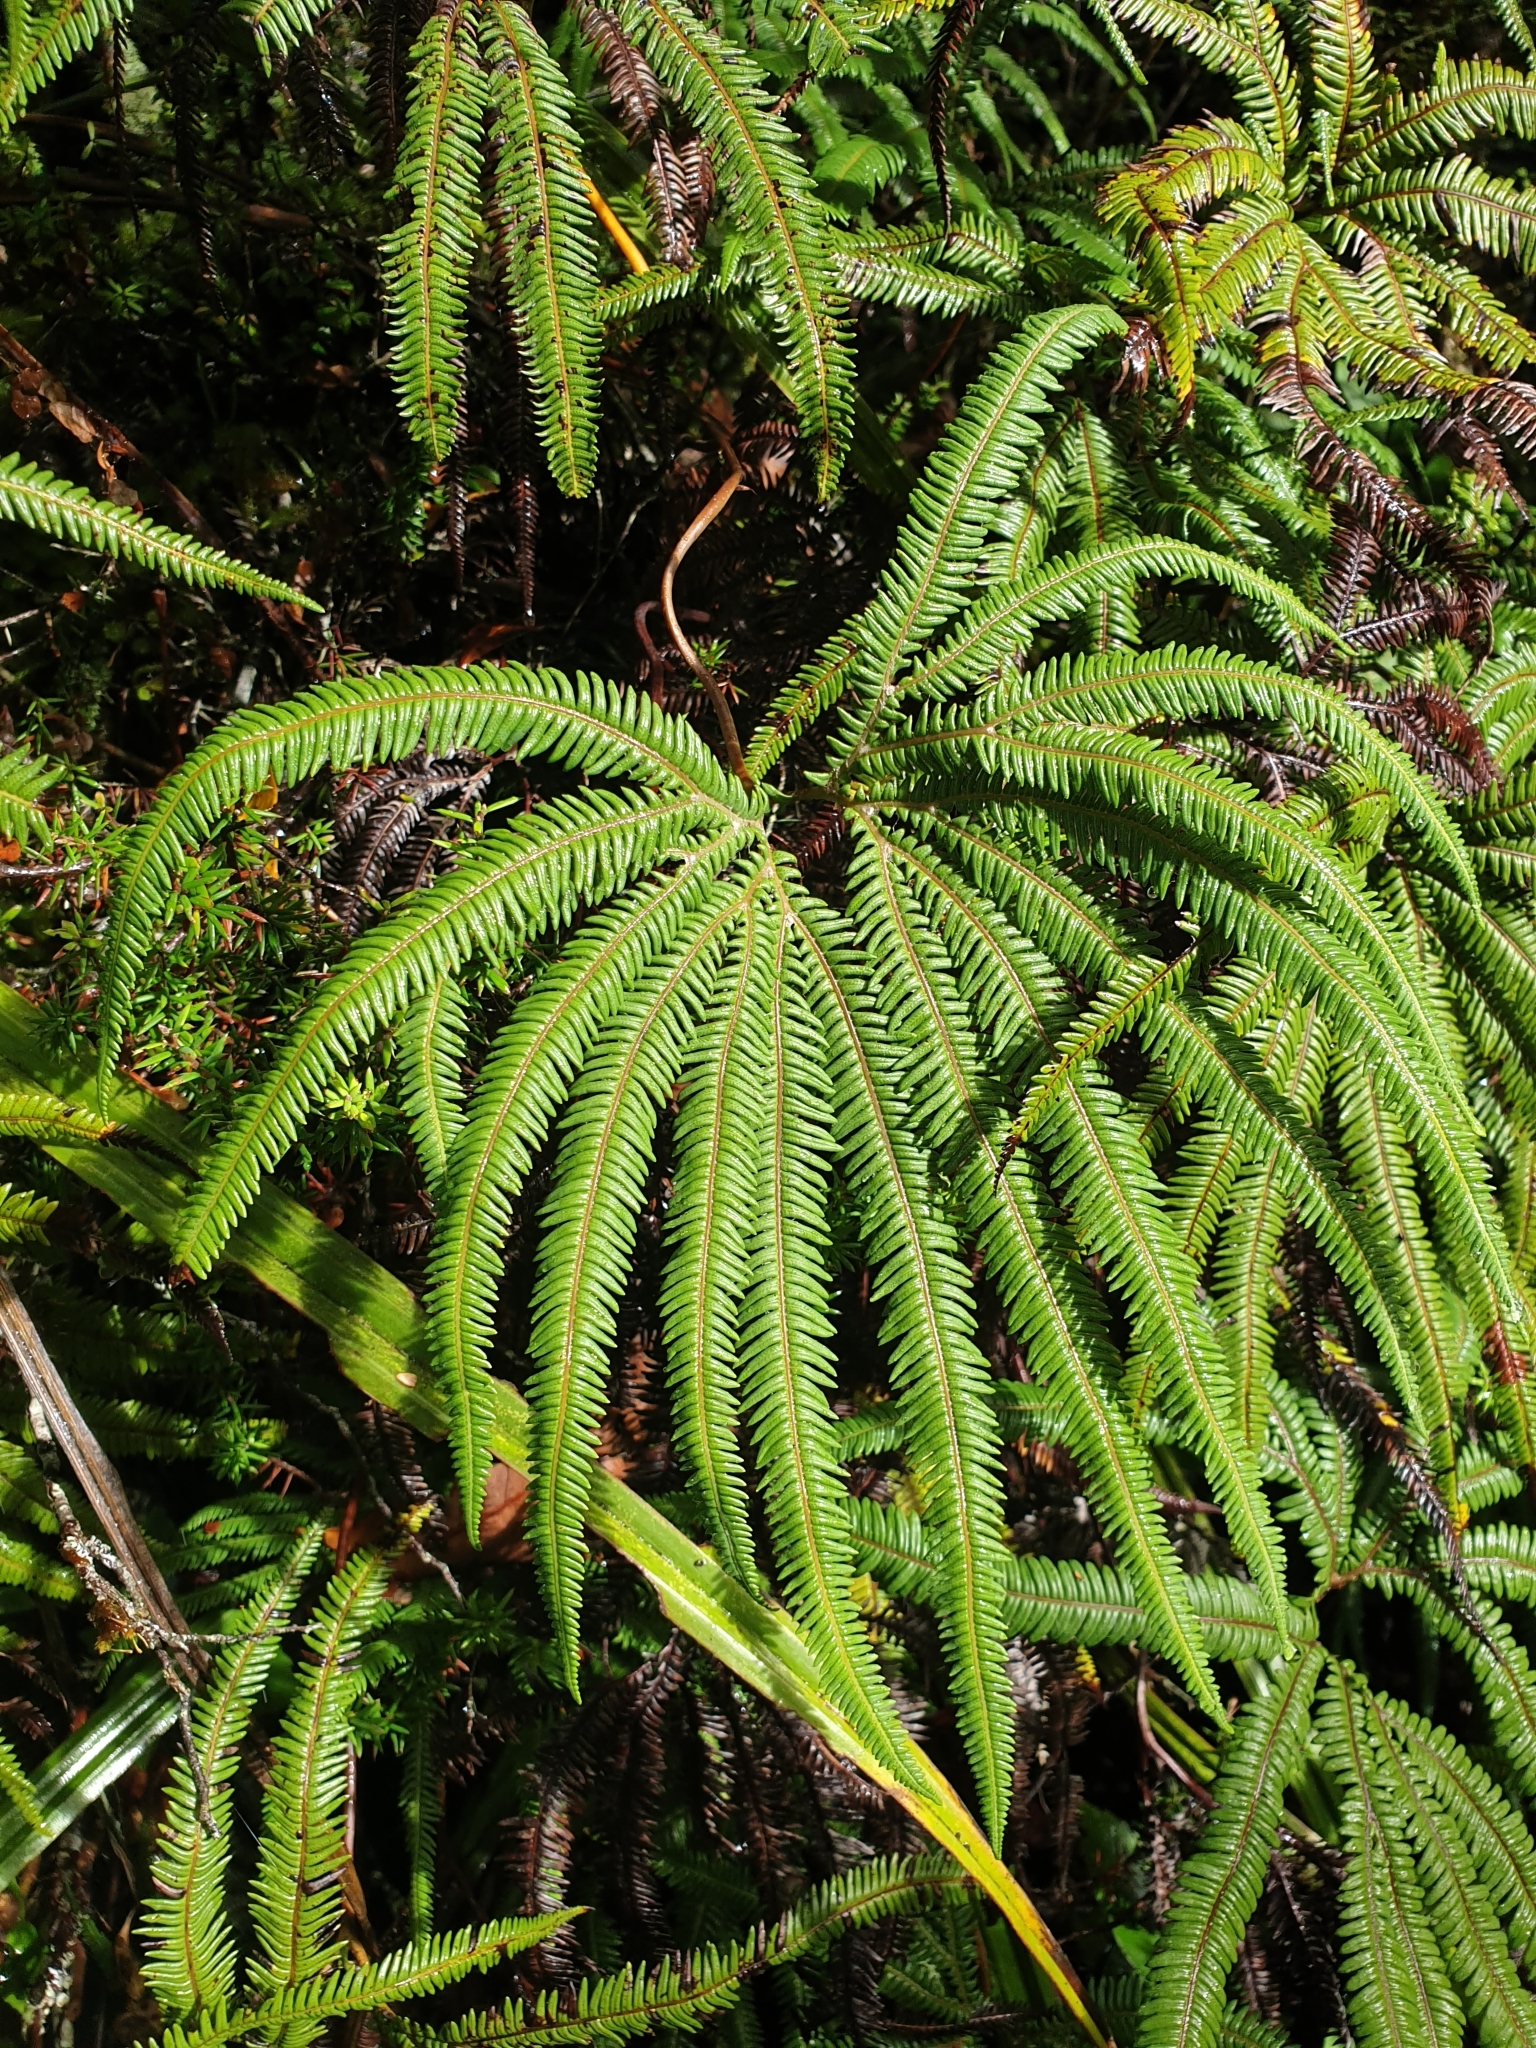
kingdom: Plantae
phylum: Tracheophyta
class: Polypodiopsida
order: Gleicheniales
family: Gleicheniaceae
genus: Sticherus
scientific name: Sticherus cunninghamii
